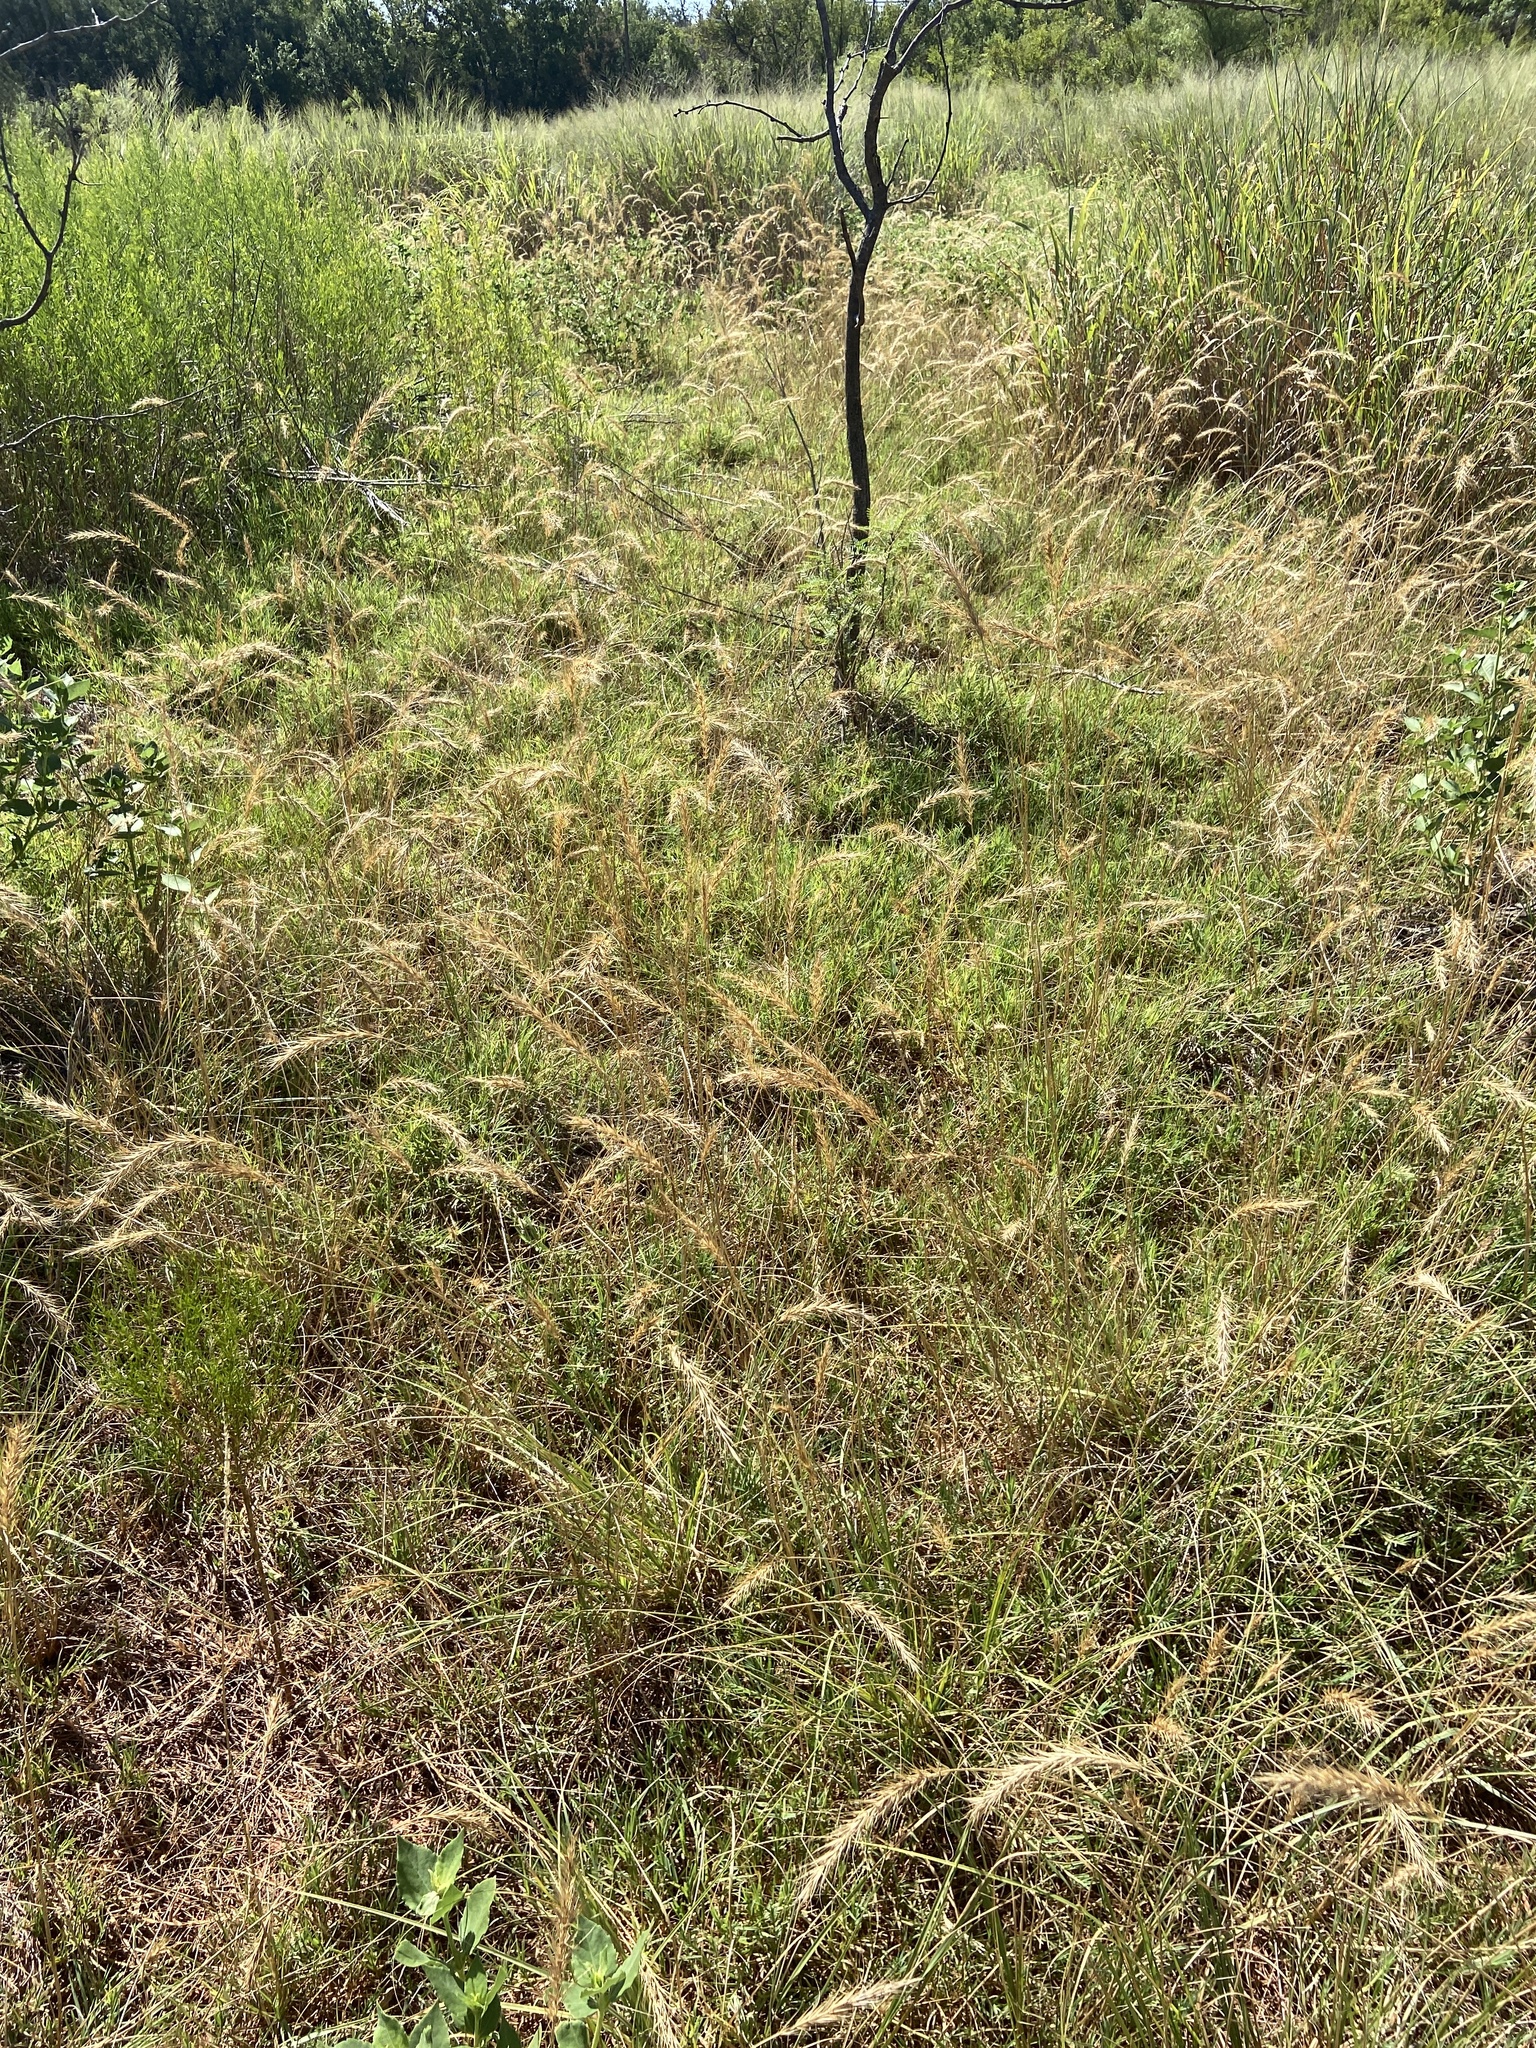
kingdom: Plantae
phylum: Tracheophyta
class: Liliopsida
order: Poales
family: Poaceae
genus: Elymus
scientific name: Elymus canadensis
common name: Canada wild rye
